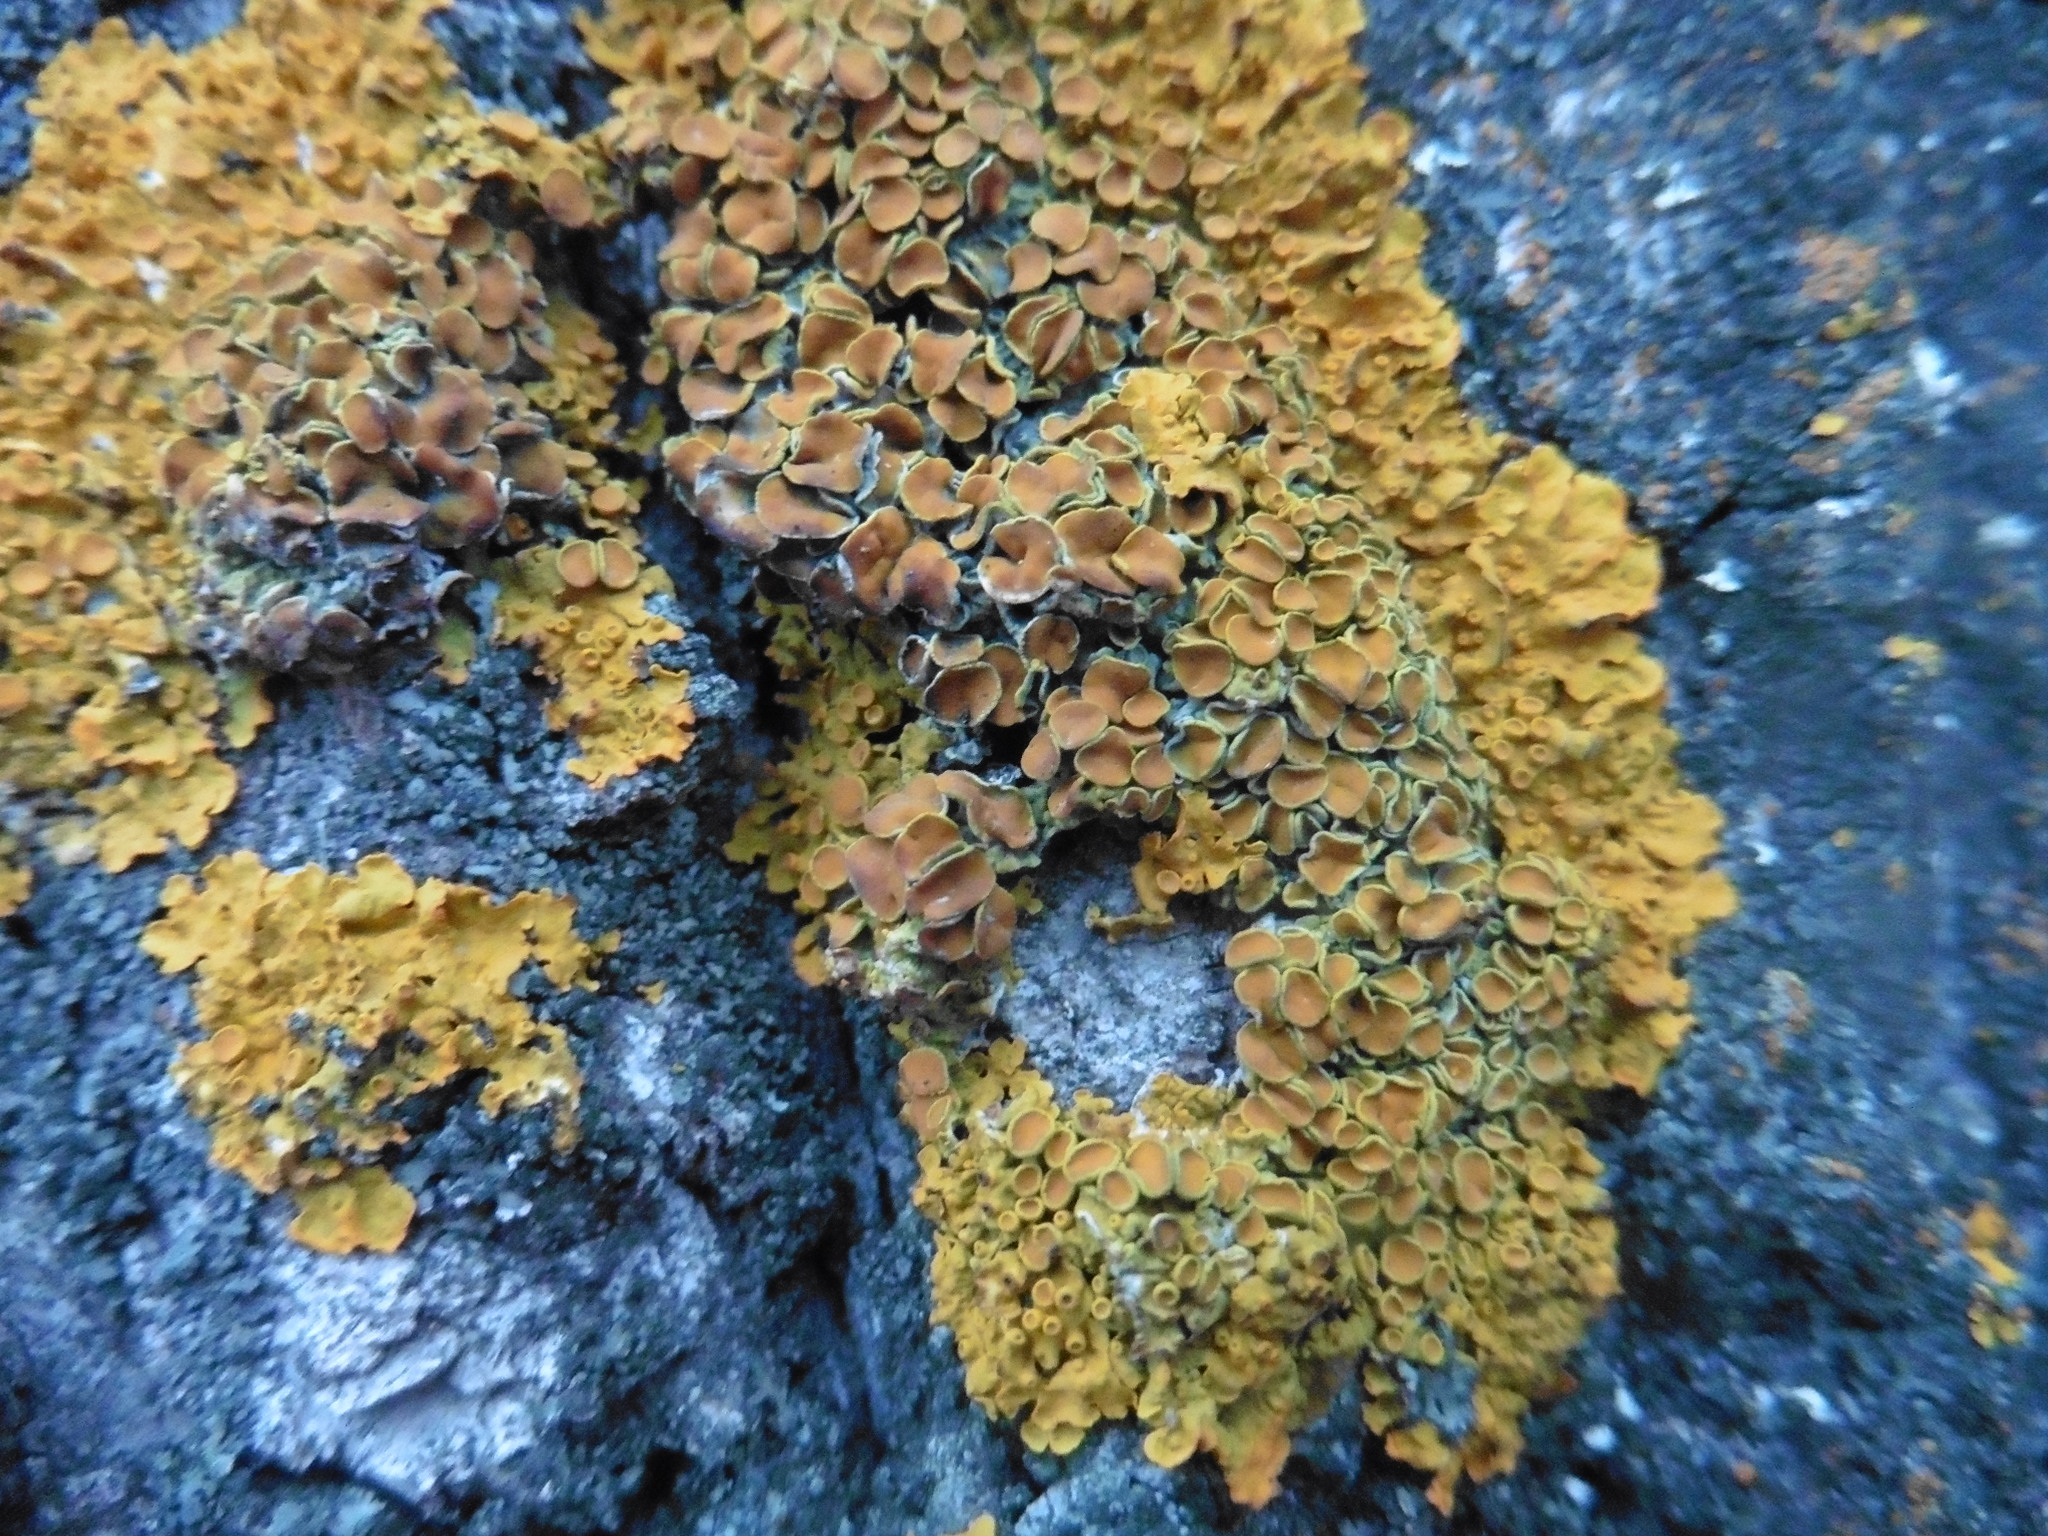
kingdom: Fungi
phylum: Ascomycota
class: Lecanoromycetes
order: Teloschistales
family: Teloschistaceae
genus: Xanthoria
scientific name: Xanthoria parietina
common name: Common orange lichen
